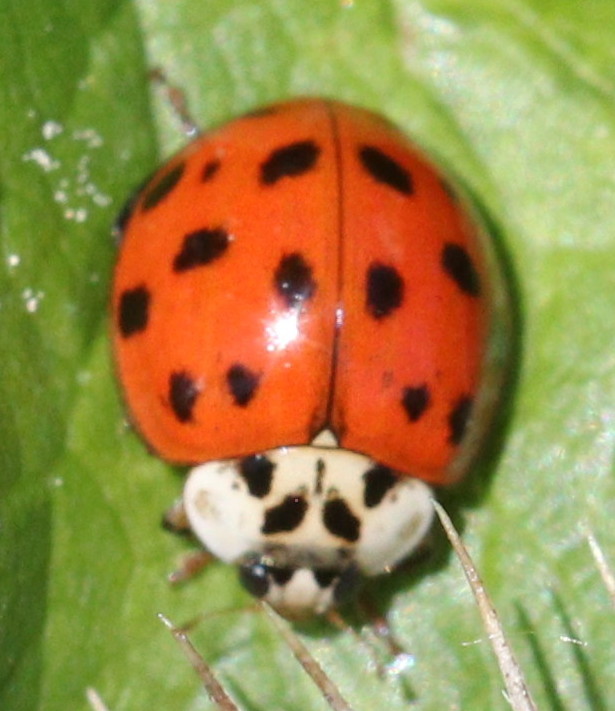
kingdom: Animalia
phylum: Arthropoda
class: Insecta
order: Coleoptera
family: Coccinellidae
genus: Harmonia
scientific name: Harmonia axyridis
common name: Harlequin ladybird
